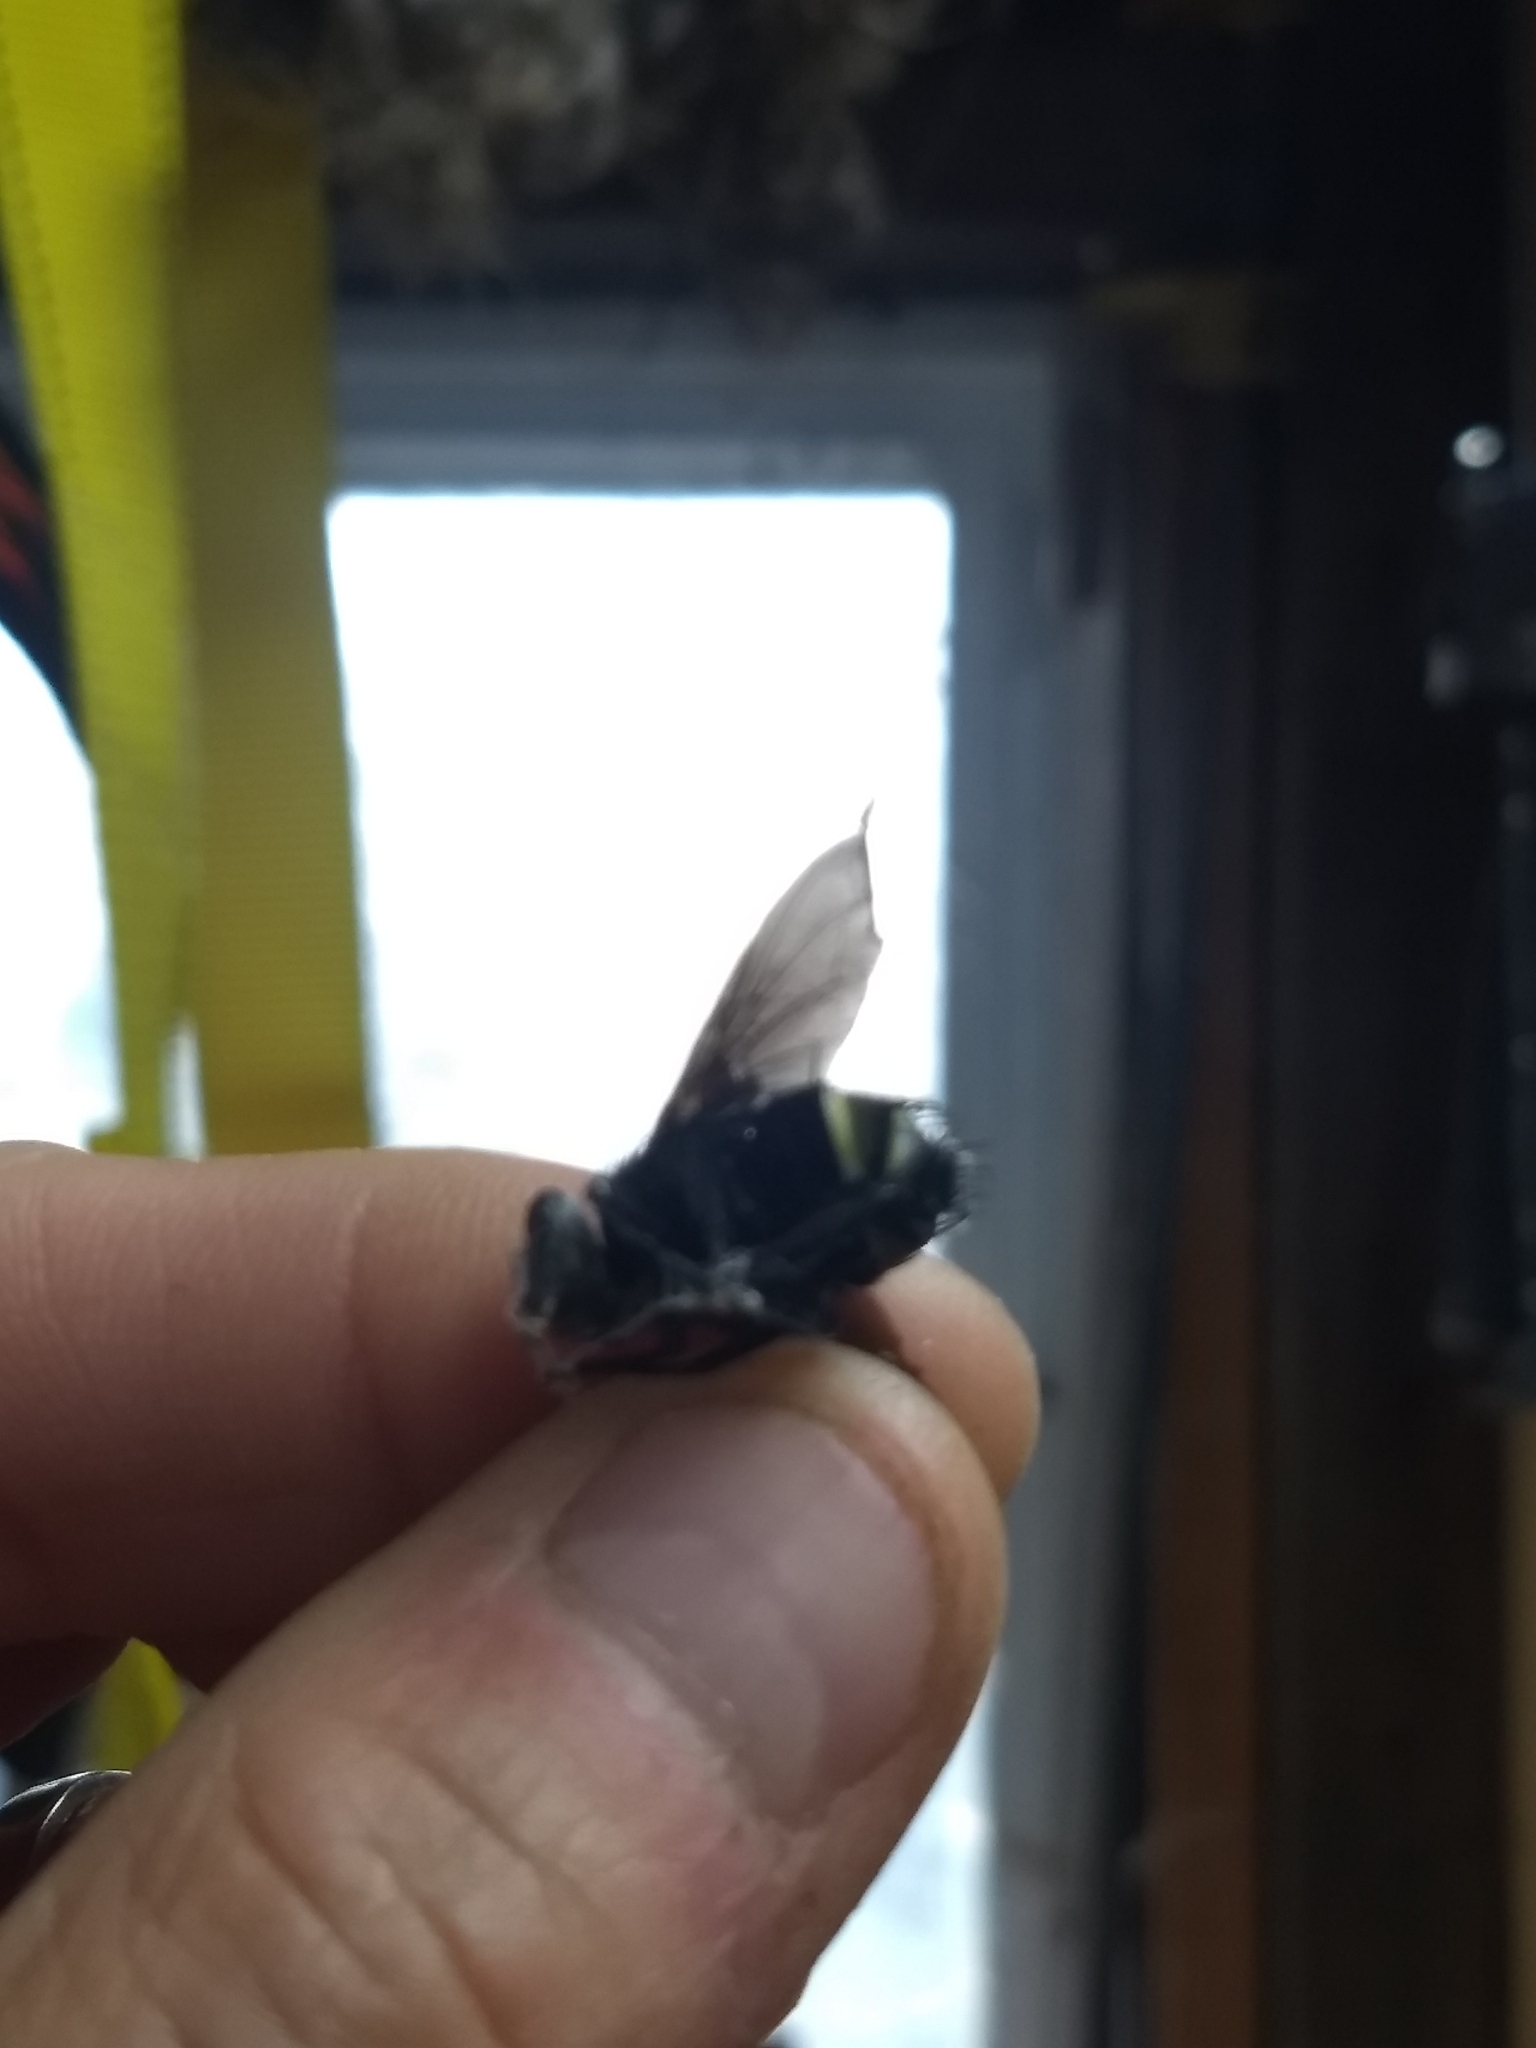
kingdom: Animalia
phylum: Arthropoda
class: Insecta
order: Diptera
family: Tachinidae
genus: Belvosia
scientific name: Belvosia borealis
